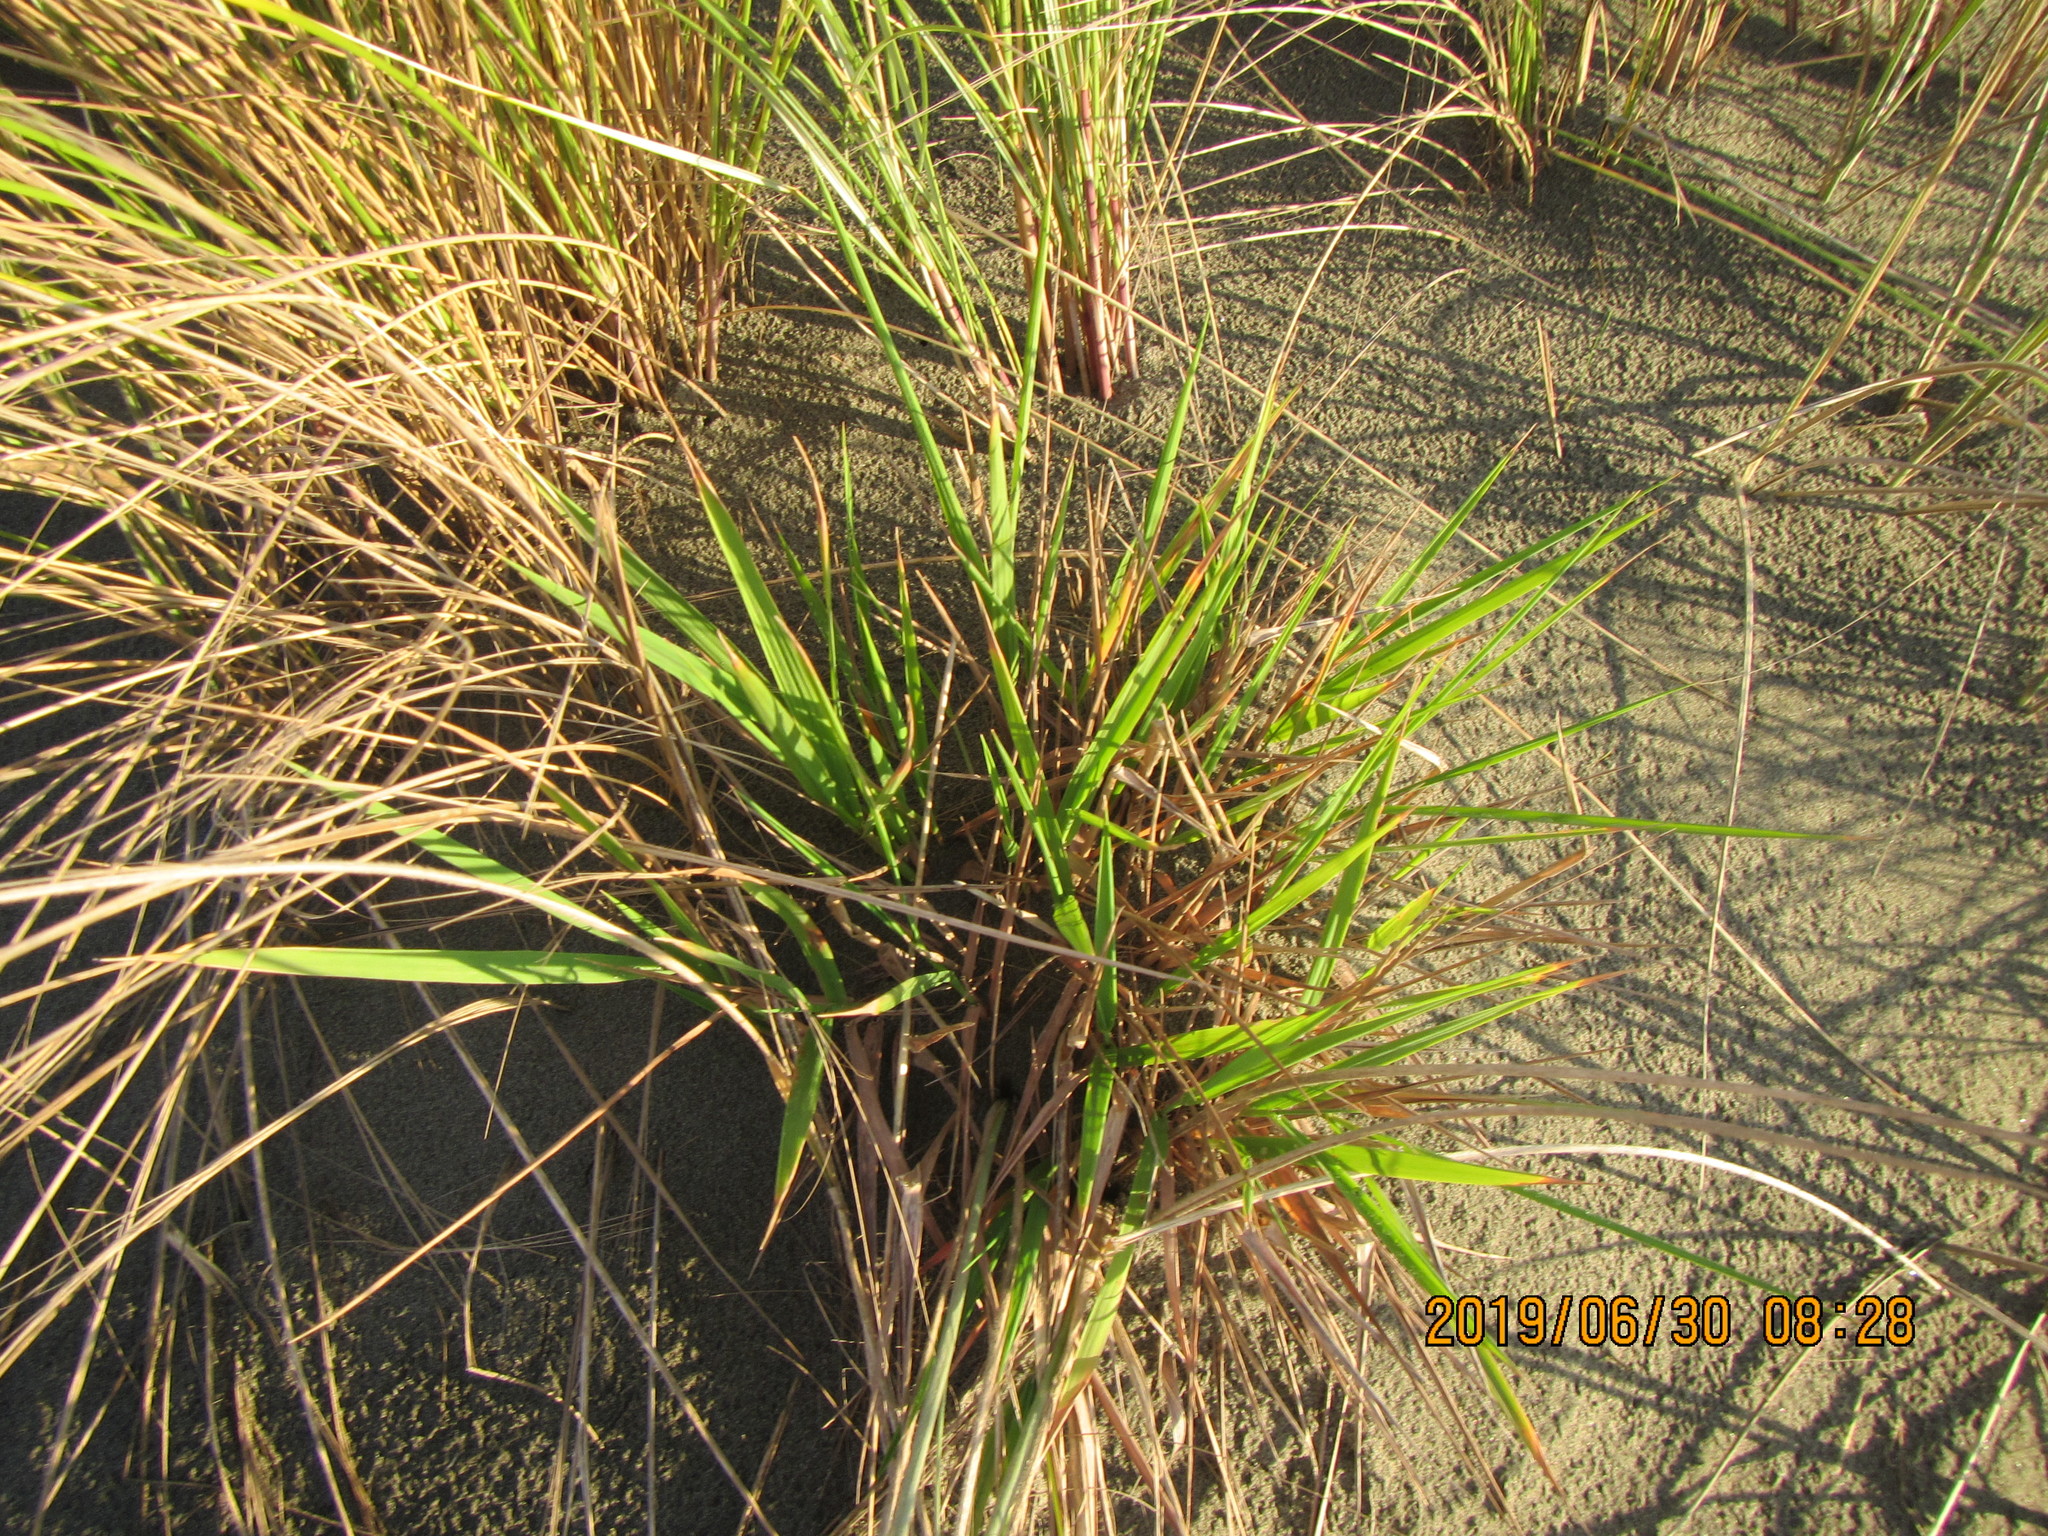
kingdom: Plantae
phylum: Tracheophyta
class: Liliopsida
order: Poales
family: Poaceae
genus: Lachnagrostis
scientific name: Lachnagrostis billardierei
